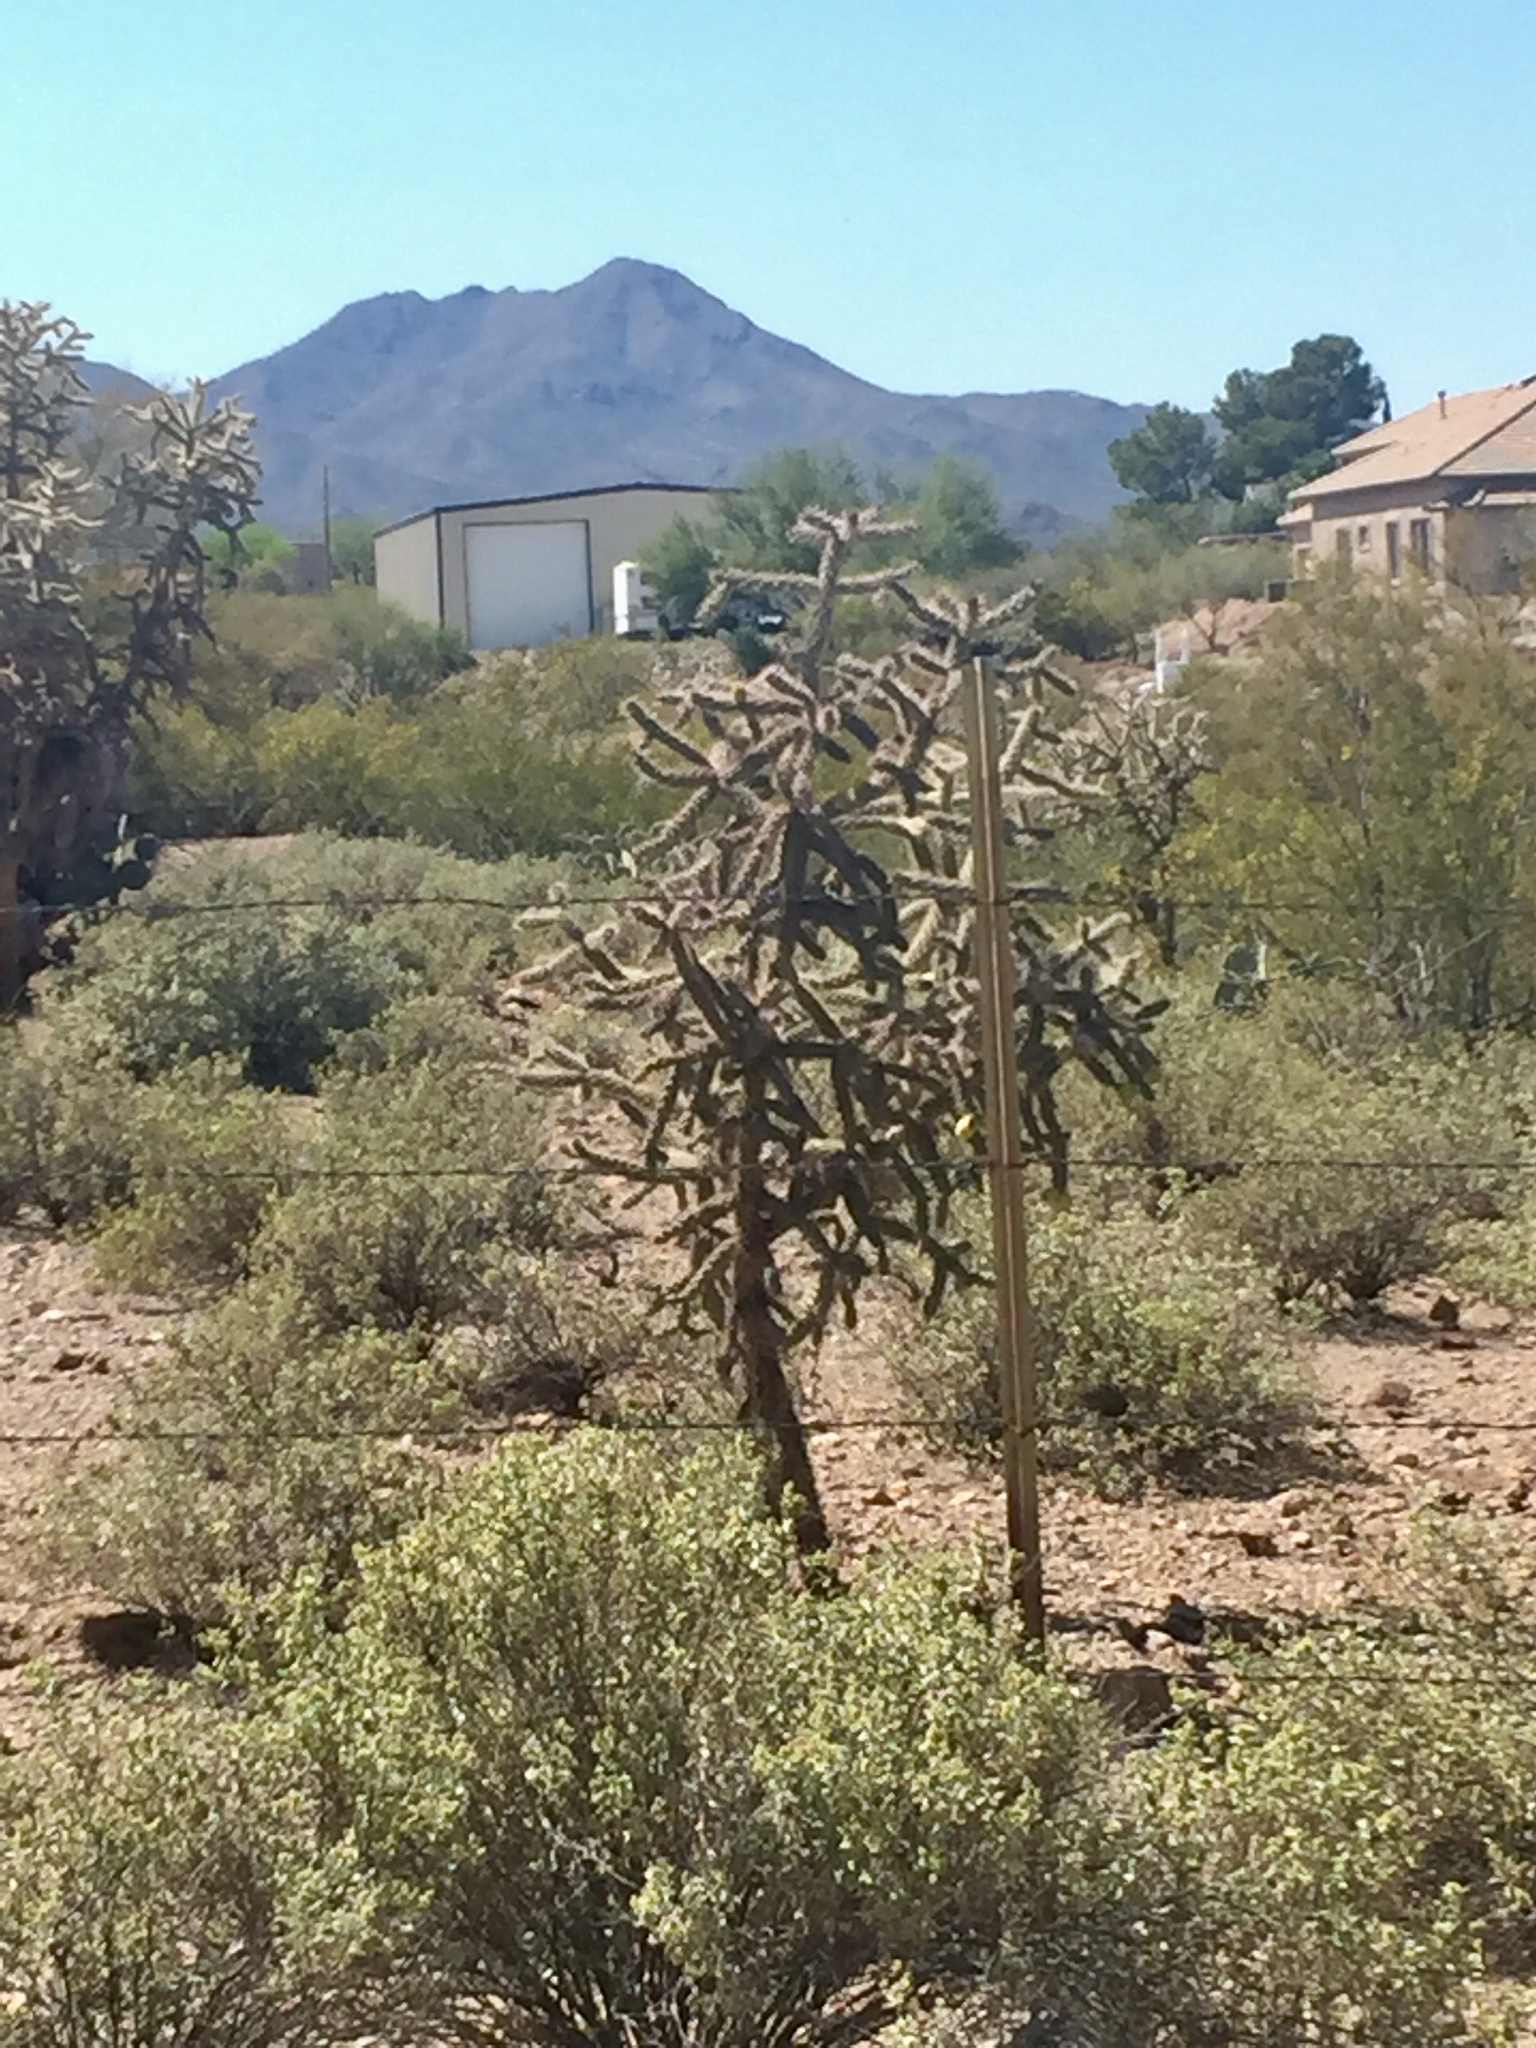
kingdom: Plantae
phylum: Tracheophyta
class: Magnoliopsida
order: Caryophyllales
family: Cactaceae
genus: Cylindropuntia
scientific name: Cylindropuntia imbricata
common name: Candelabrum cactus
